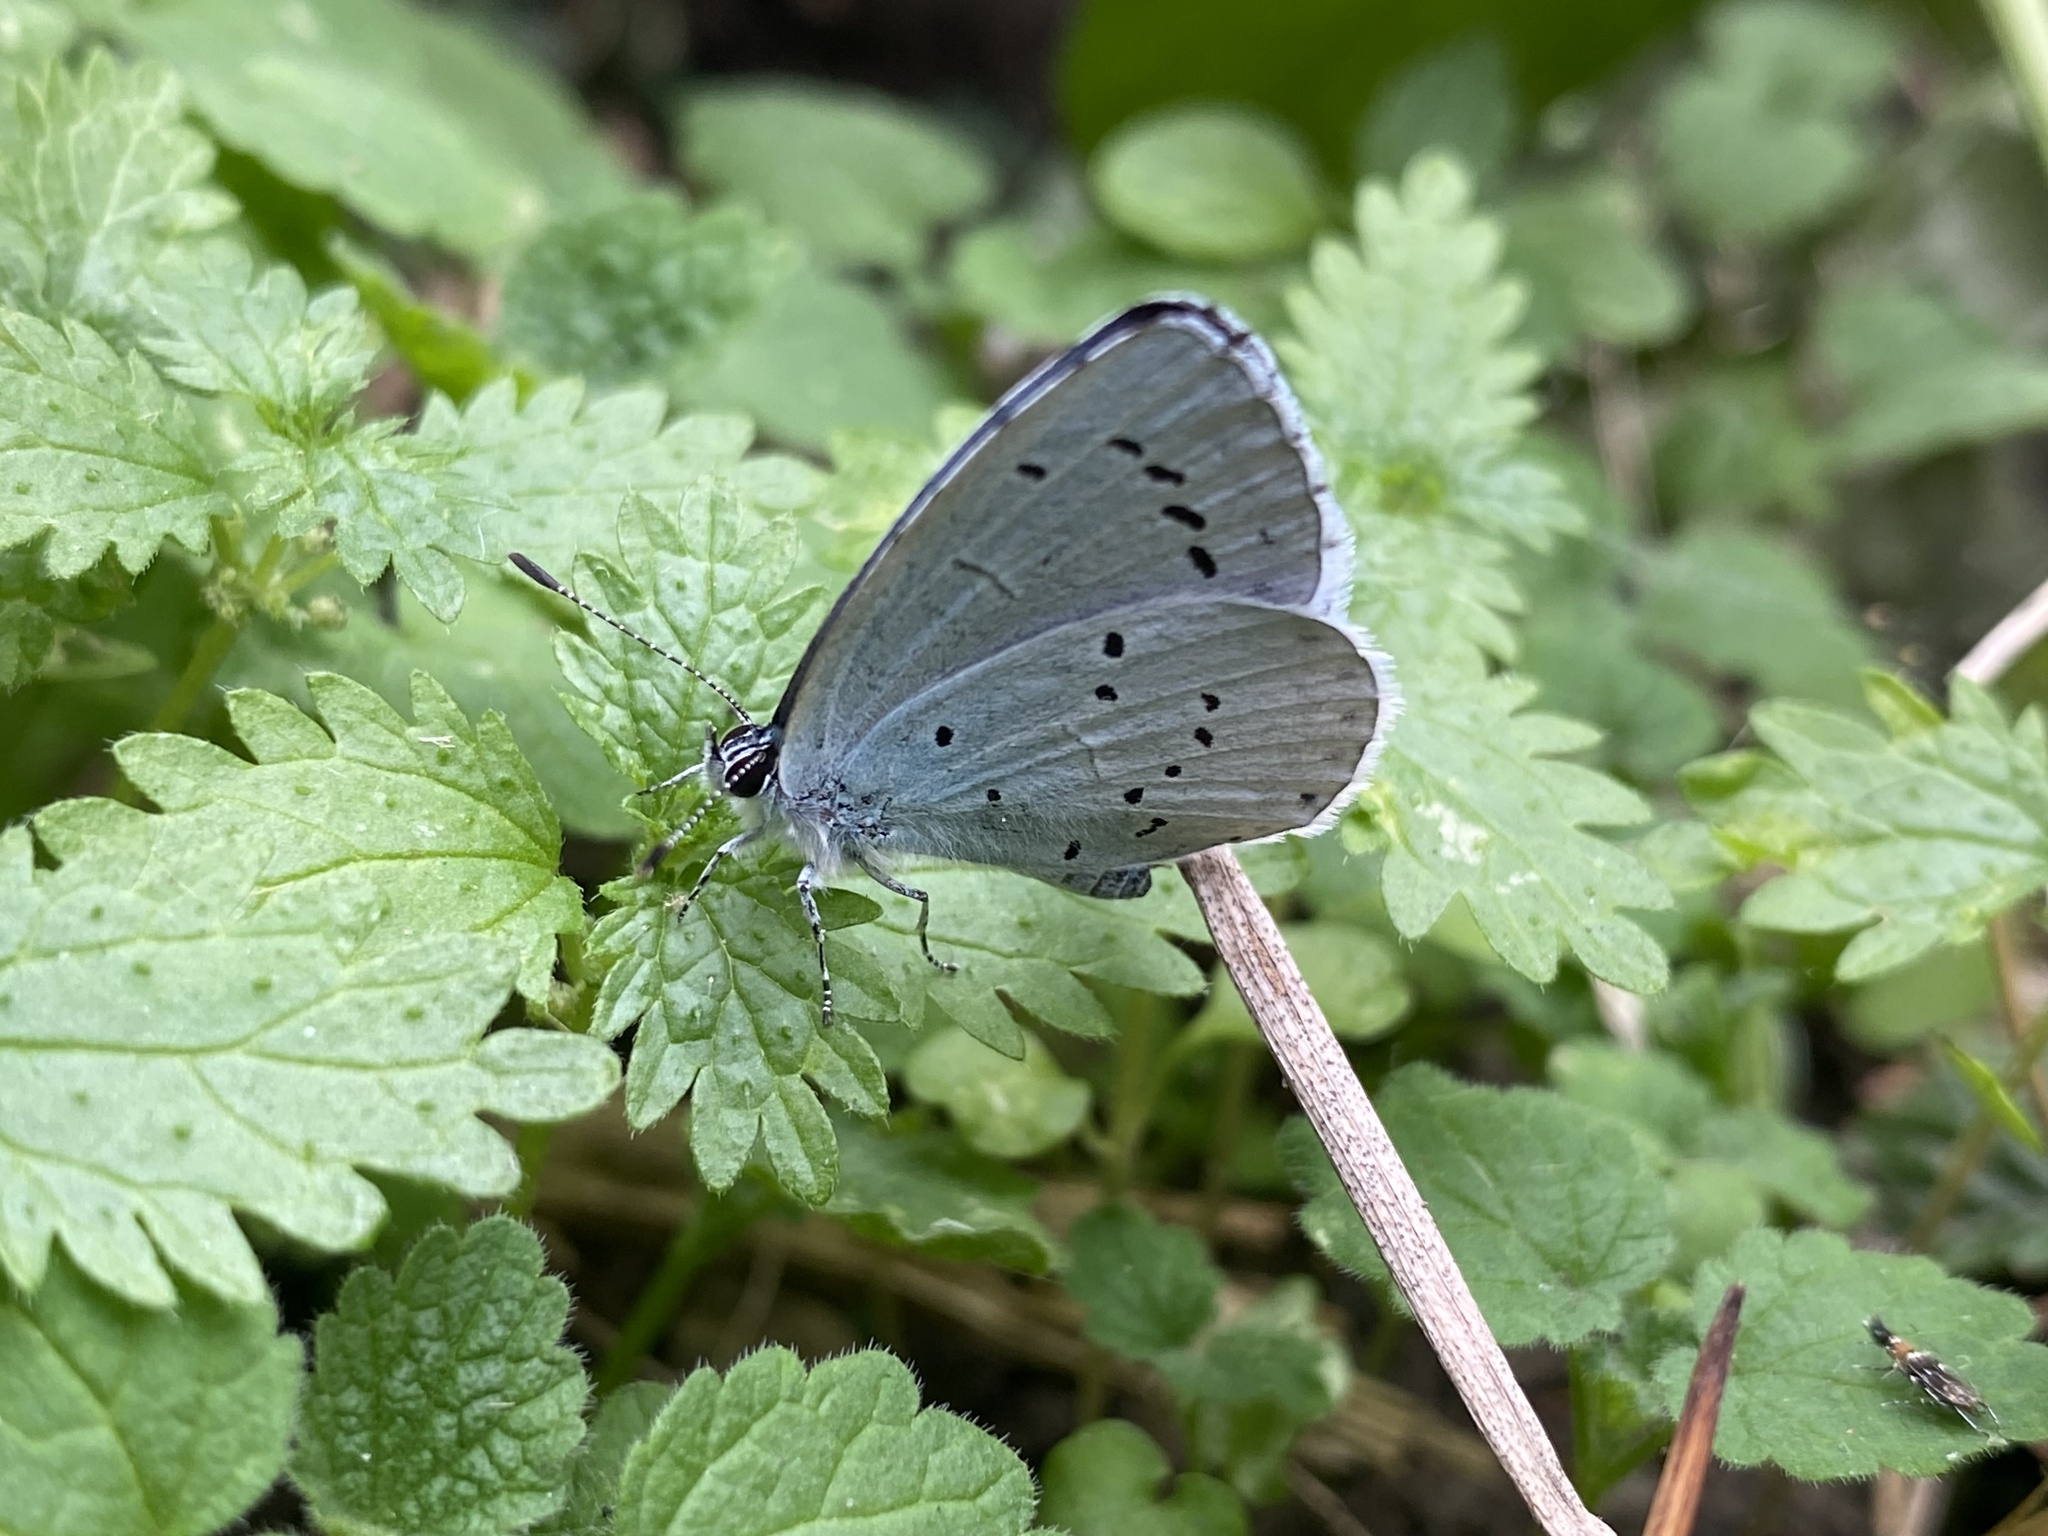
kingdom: Animalia
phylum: Arthropoda
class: Insecta
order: Lepidoptera
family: Lycaenidae
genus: Celastrina
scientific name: Celastrina argiolus
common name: Holly blue
